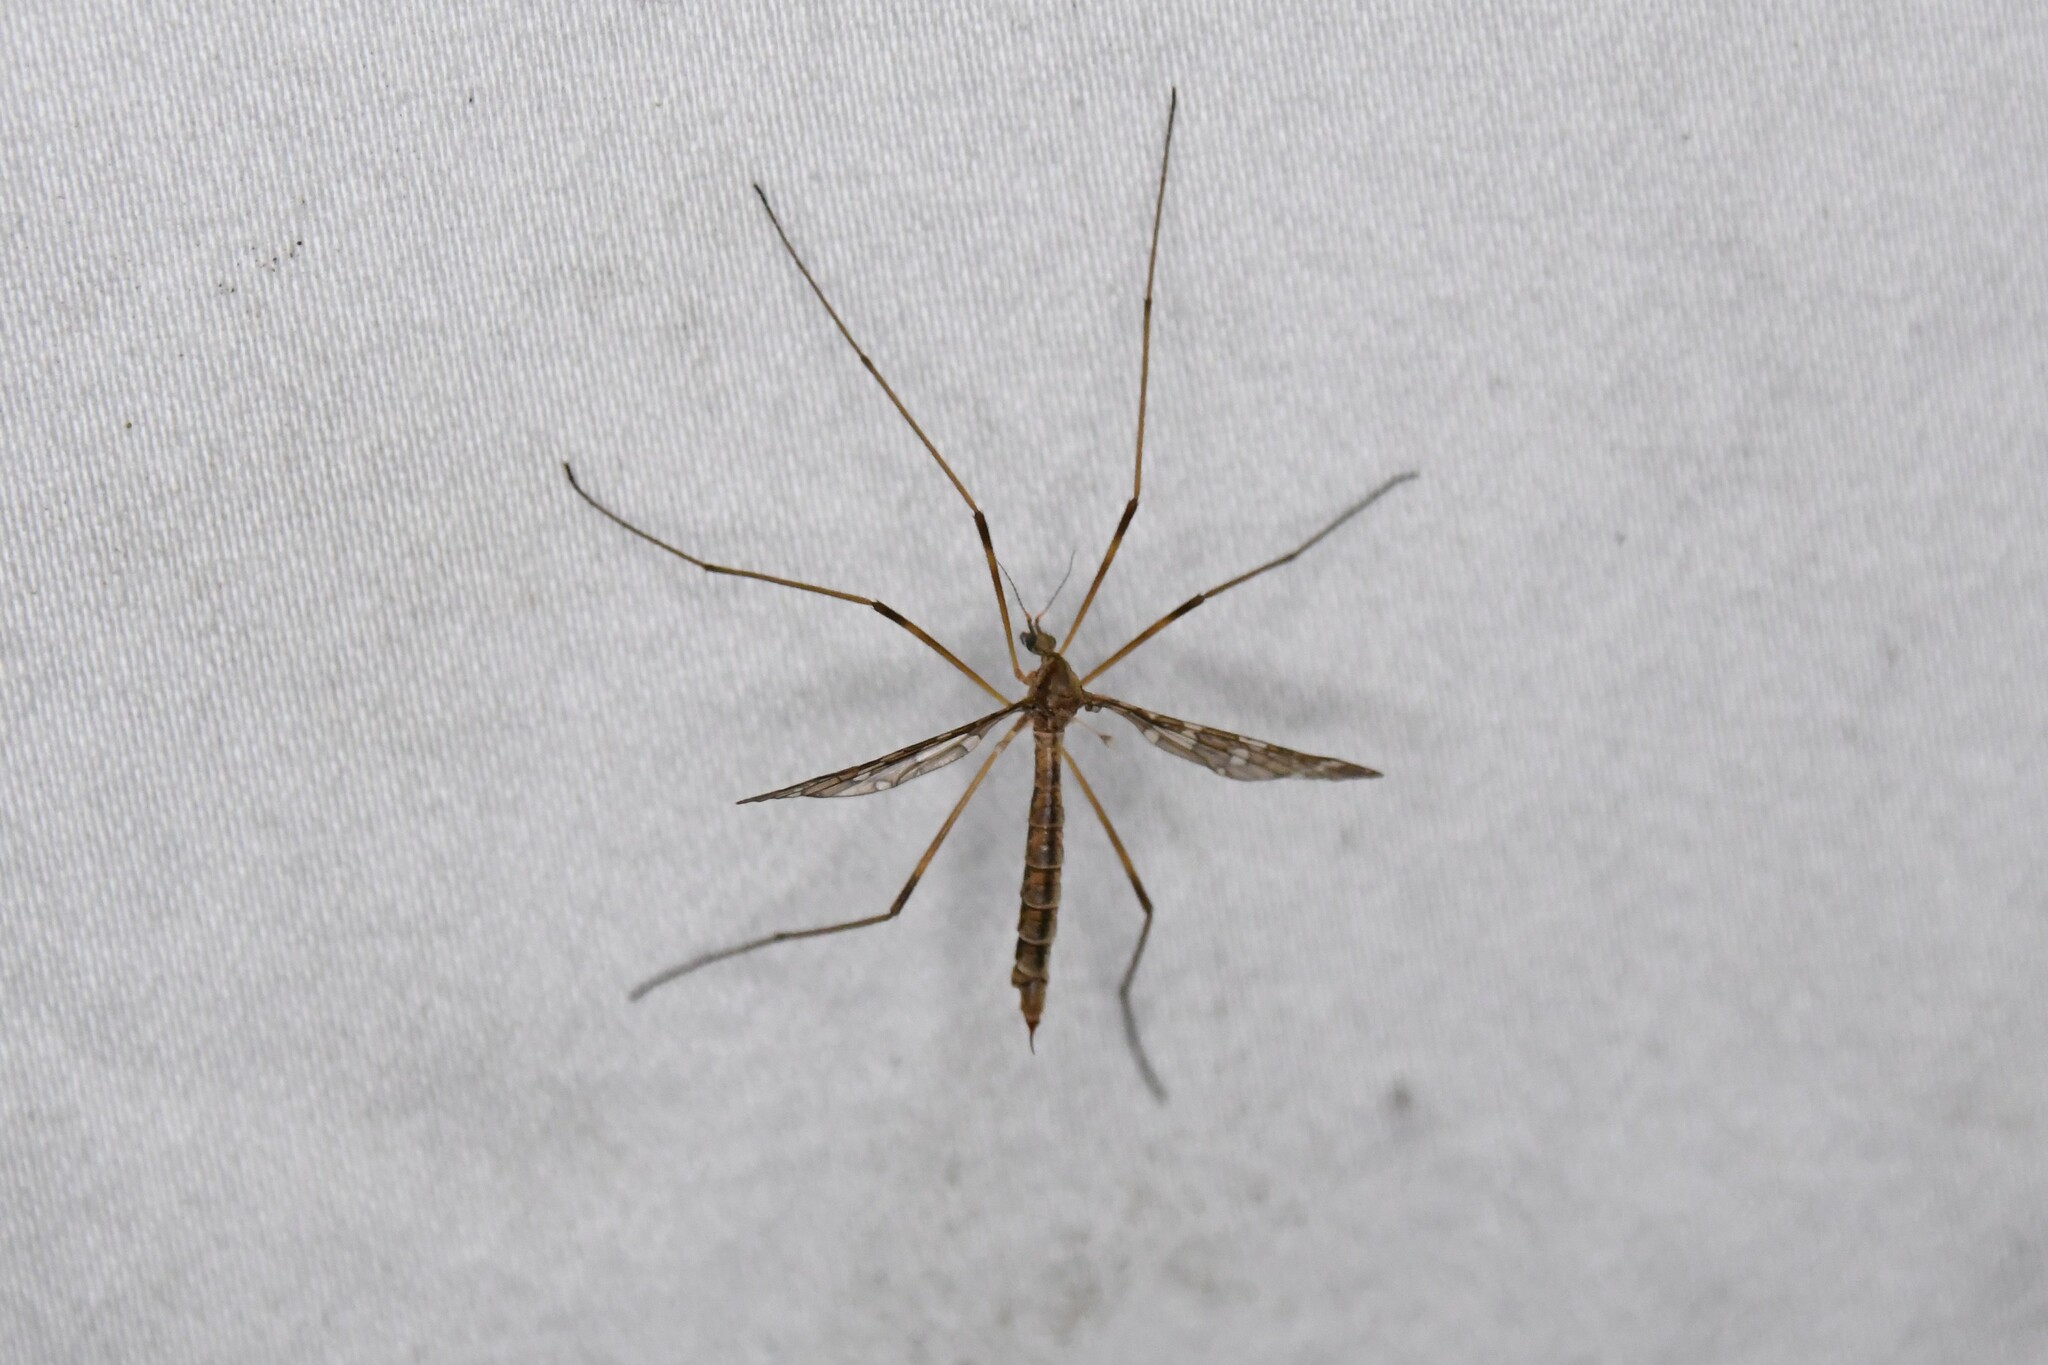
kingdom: Animalia
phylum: Arthropoda
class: Insecta
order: Diptera
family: Limoniidae
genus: Epiphragma
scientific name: Epiphragma fasciapenne
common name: Band-winged crane fly
